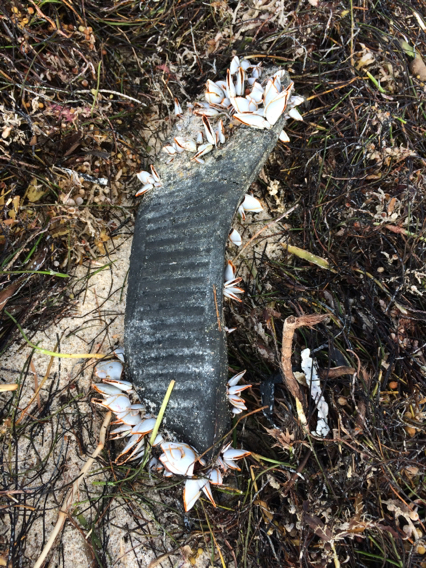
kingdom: Animalia
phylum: Arthropoda
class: Maxillopoda
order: Pedunculata
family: Lepadidae
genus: Lepas
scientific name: Lepas anatifera
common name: Common goose barnacle
